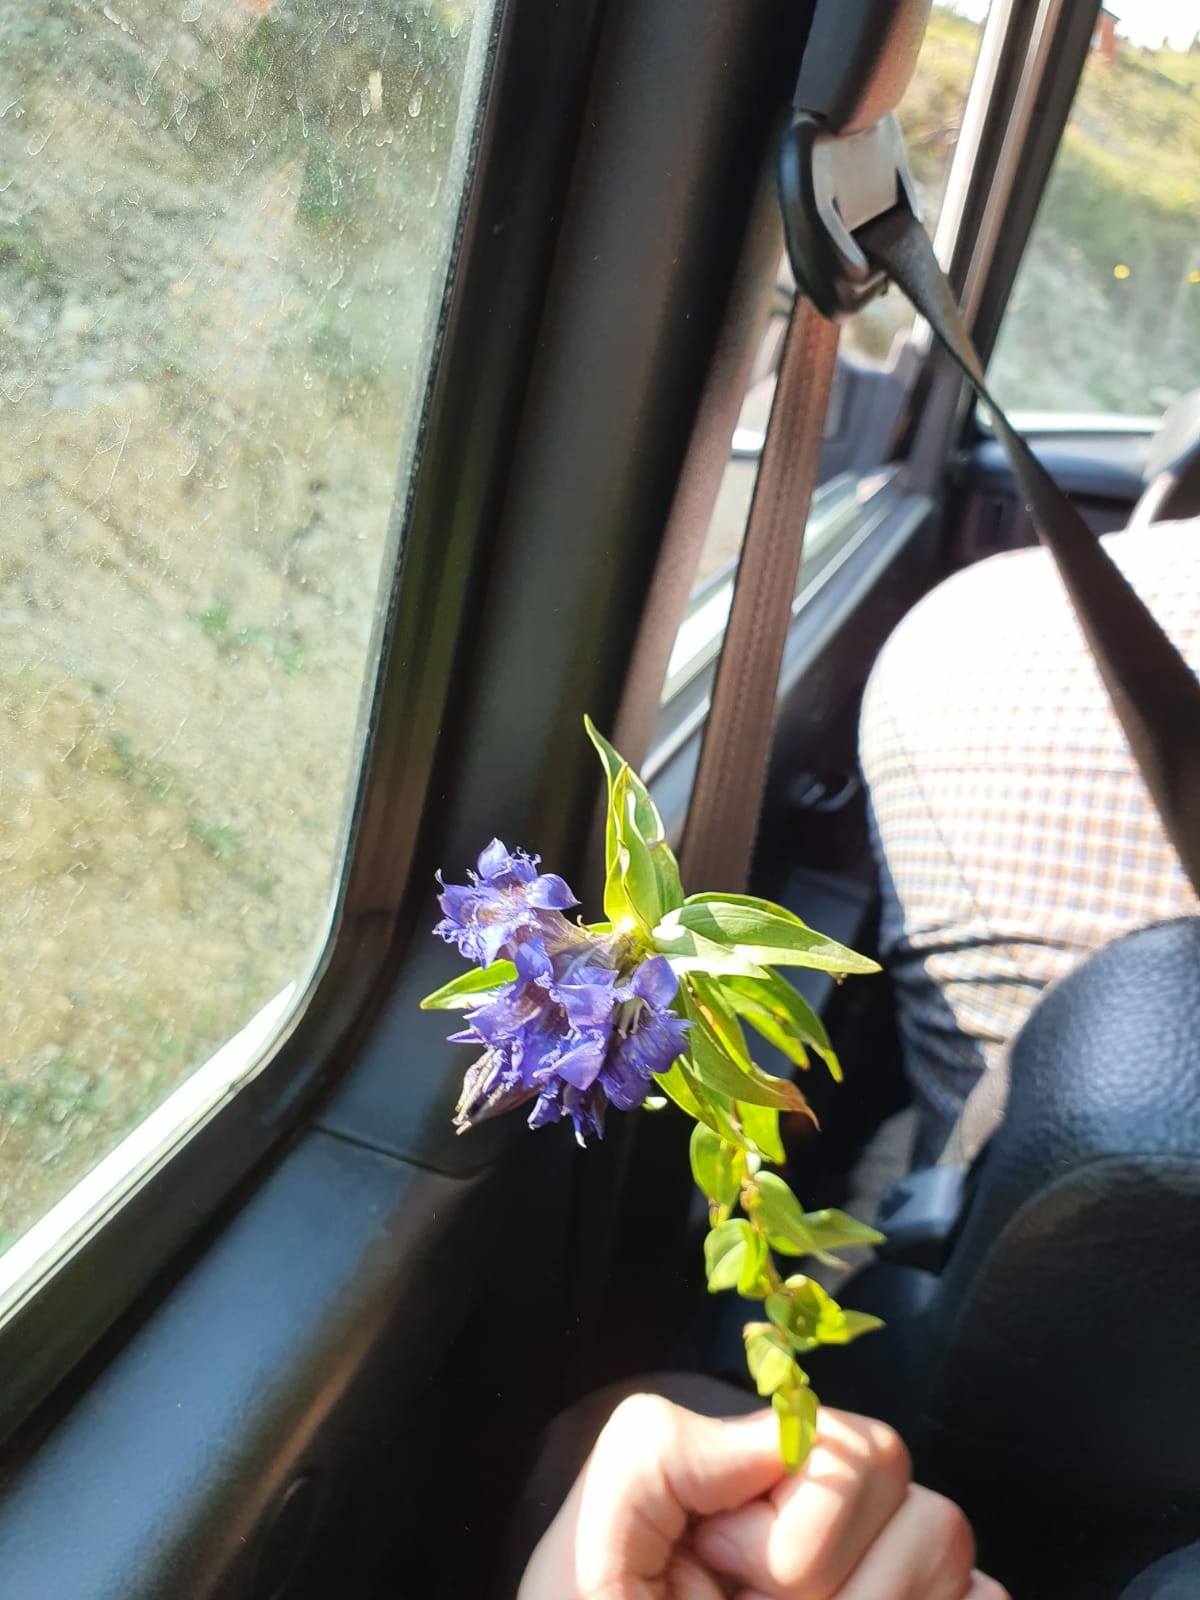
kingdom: Plantae
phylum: Tracheophyta
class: Magnoliopsida
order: Gentianales
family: Gentianaceae
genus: Gentiana
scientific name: Gentiana septemfida
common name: Crested gentian
